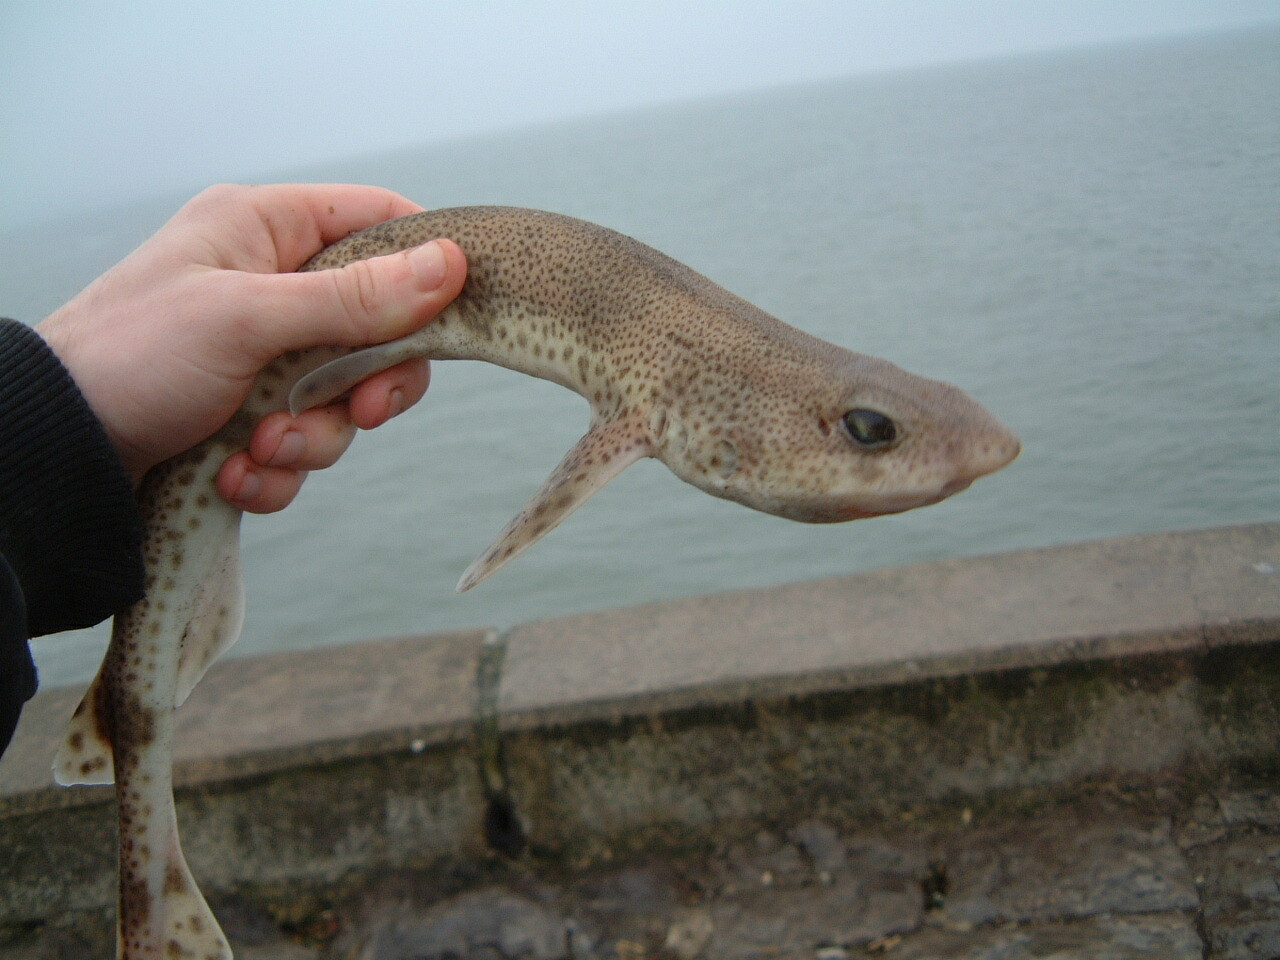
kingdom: Animalia
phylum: Chordata
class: Elasmobranchii
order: Carcharhiniformes
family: Scyliorhinidae
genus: Scyliorhinus
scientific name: Scyliorhinus canicula
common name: Lesser spotted dogfish
